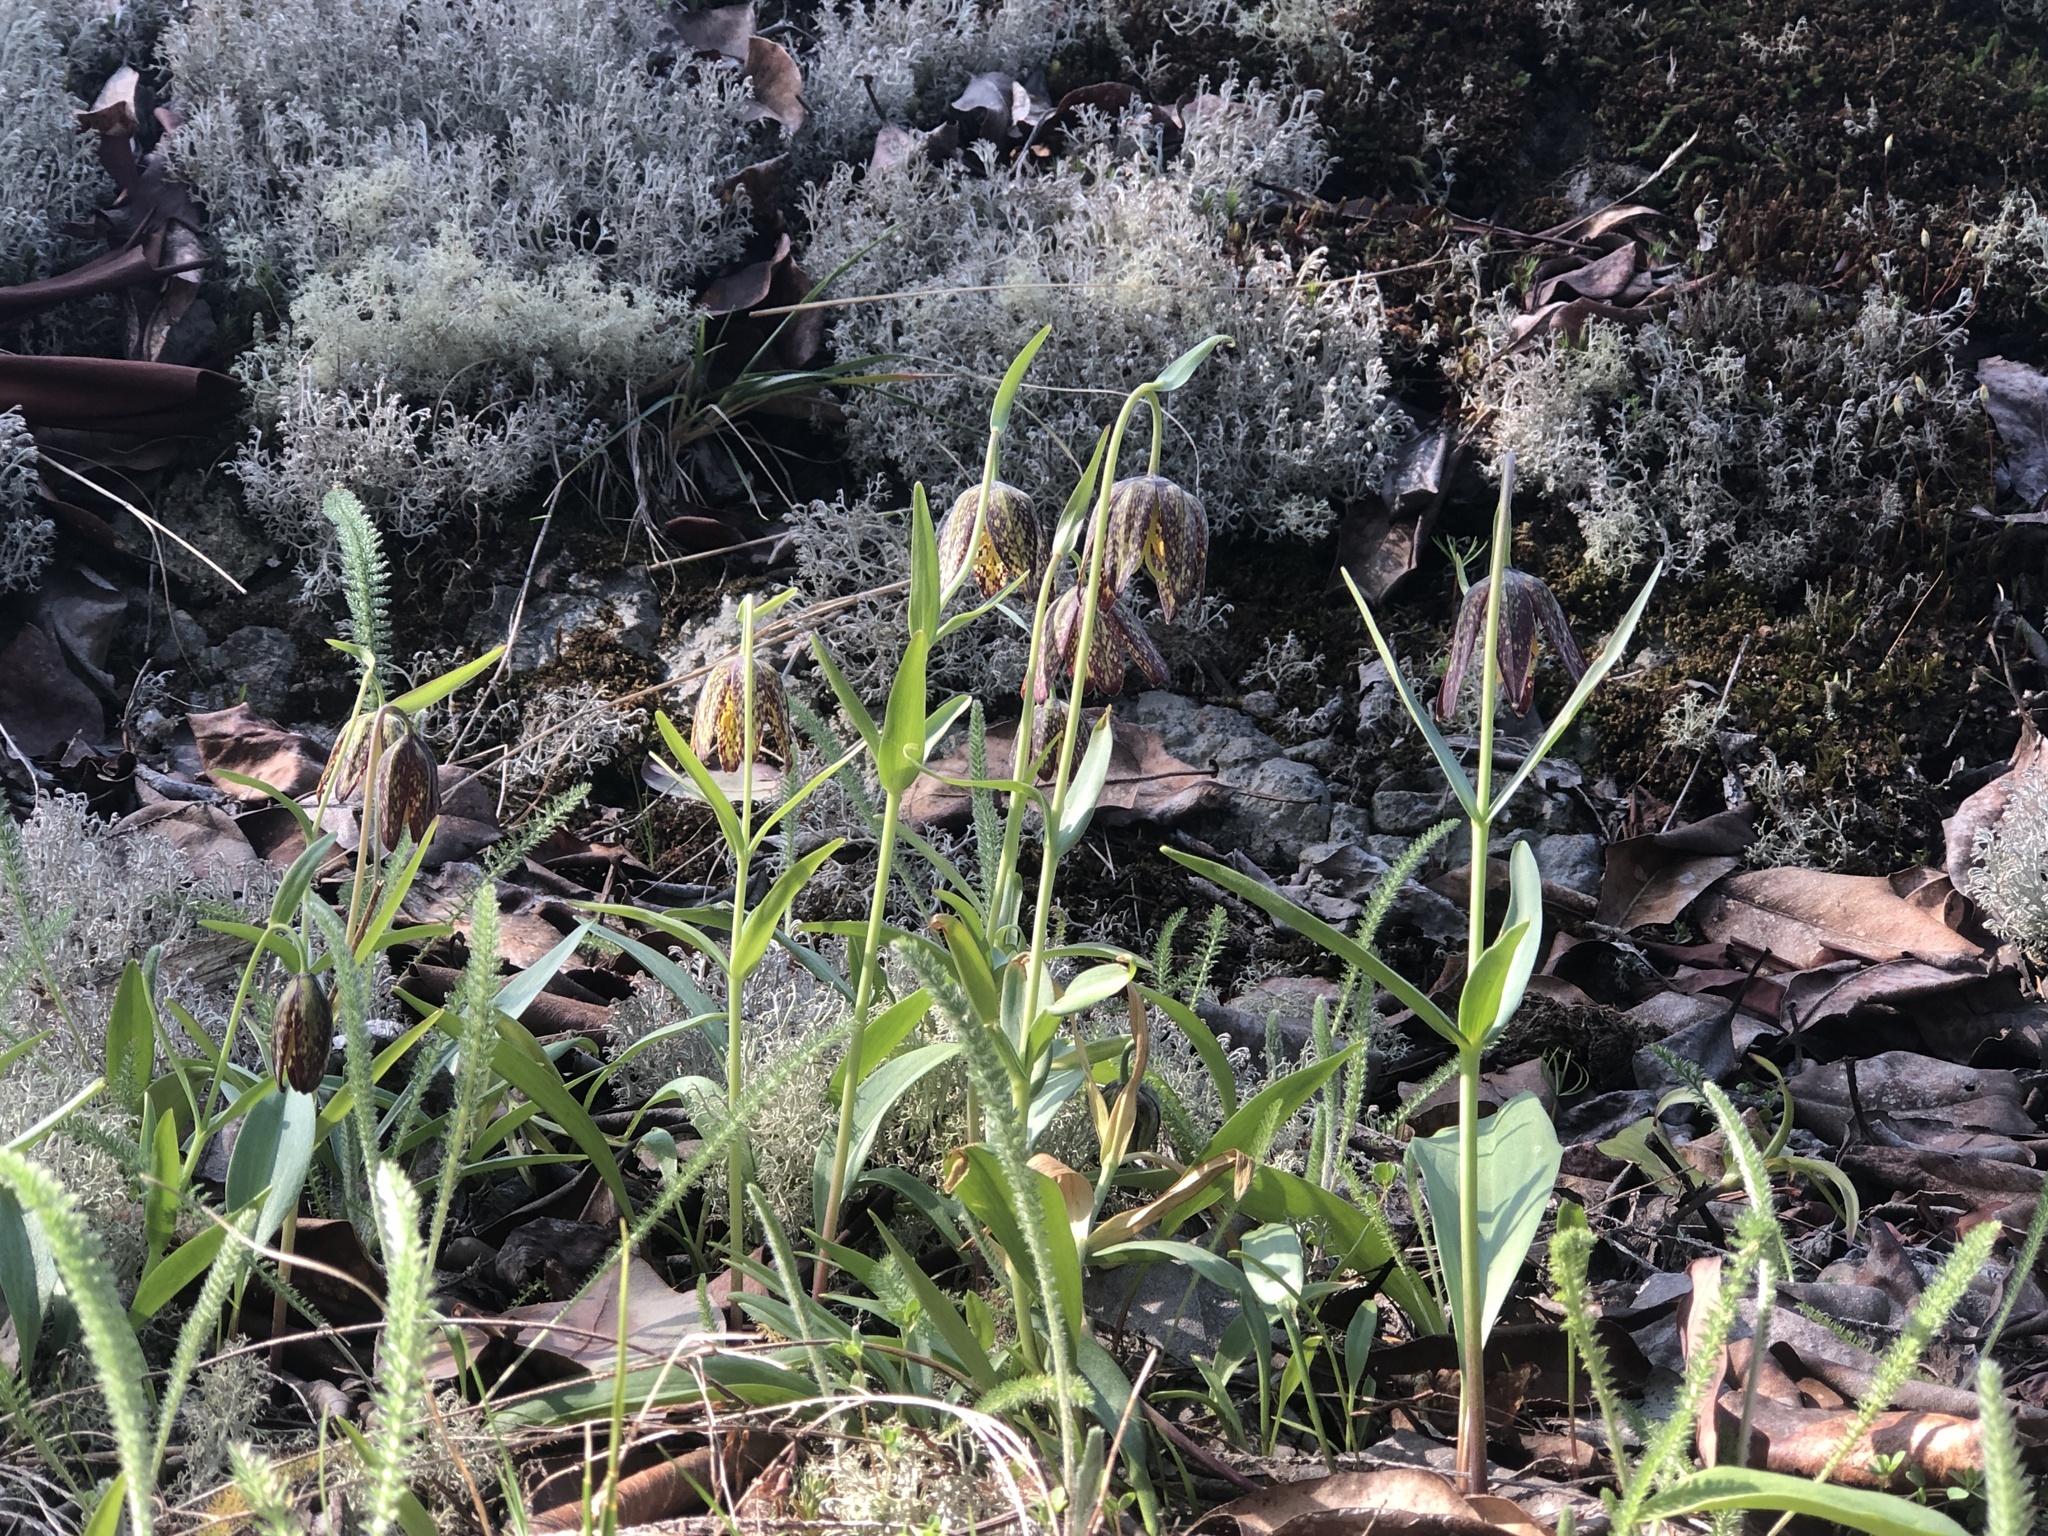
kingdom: Plantae
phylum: Tracheophyta
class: Liliopsida
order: Liliales
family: Liliaceae
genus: Fritillaria
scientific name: Fritillaria affinis
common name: Ojai fritillary
